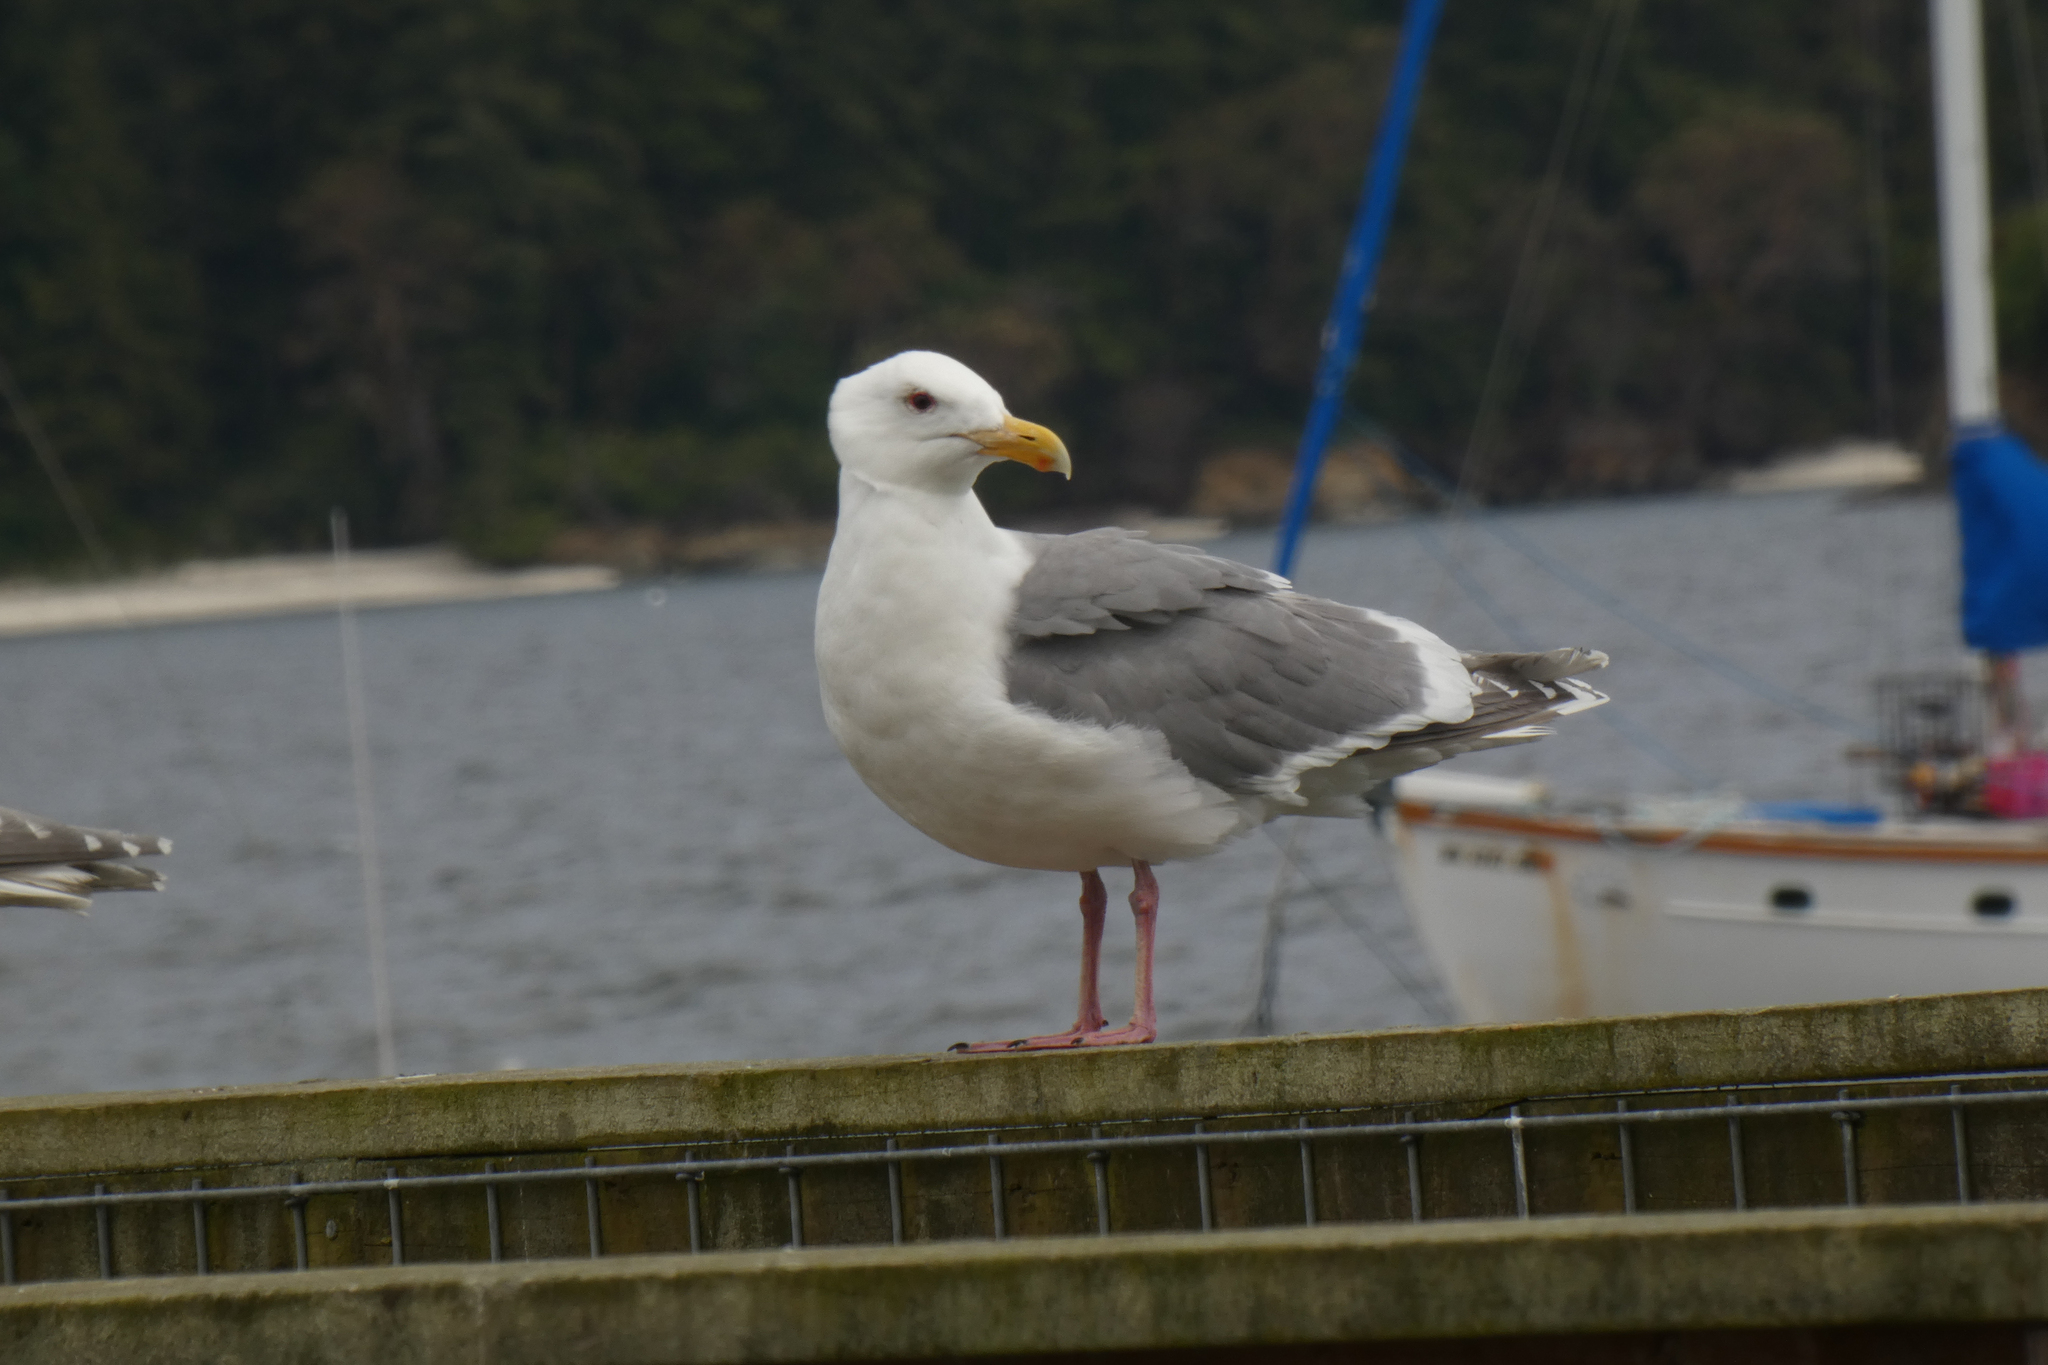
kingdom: Animalia
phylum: Chordata
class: Aves
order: Charadriiformes
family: Laridae
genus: Larus
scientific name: Larus
